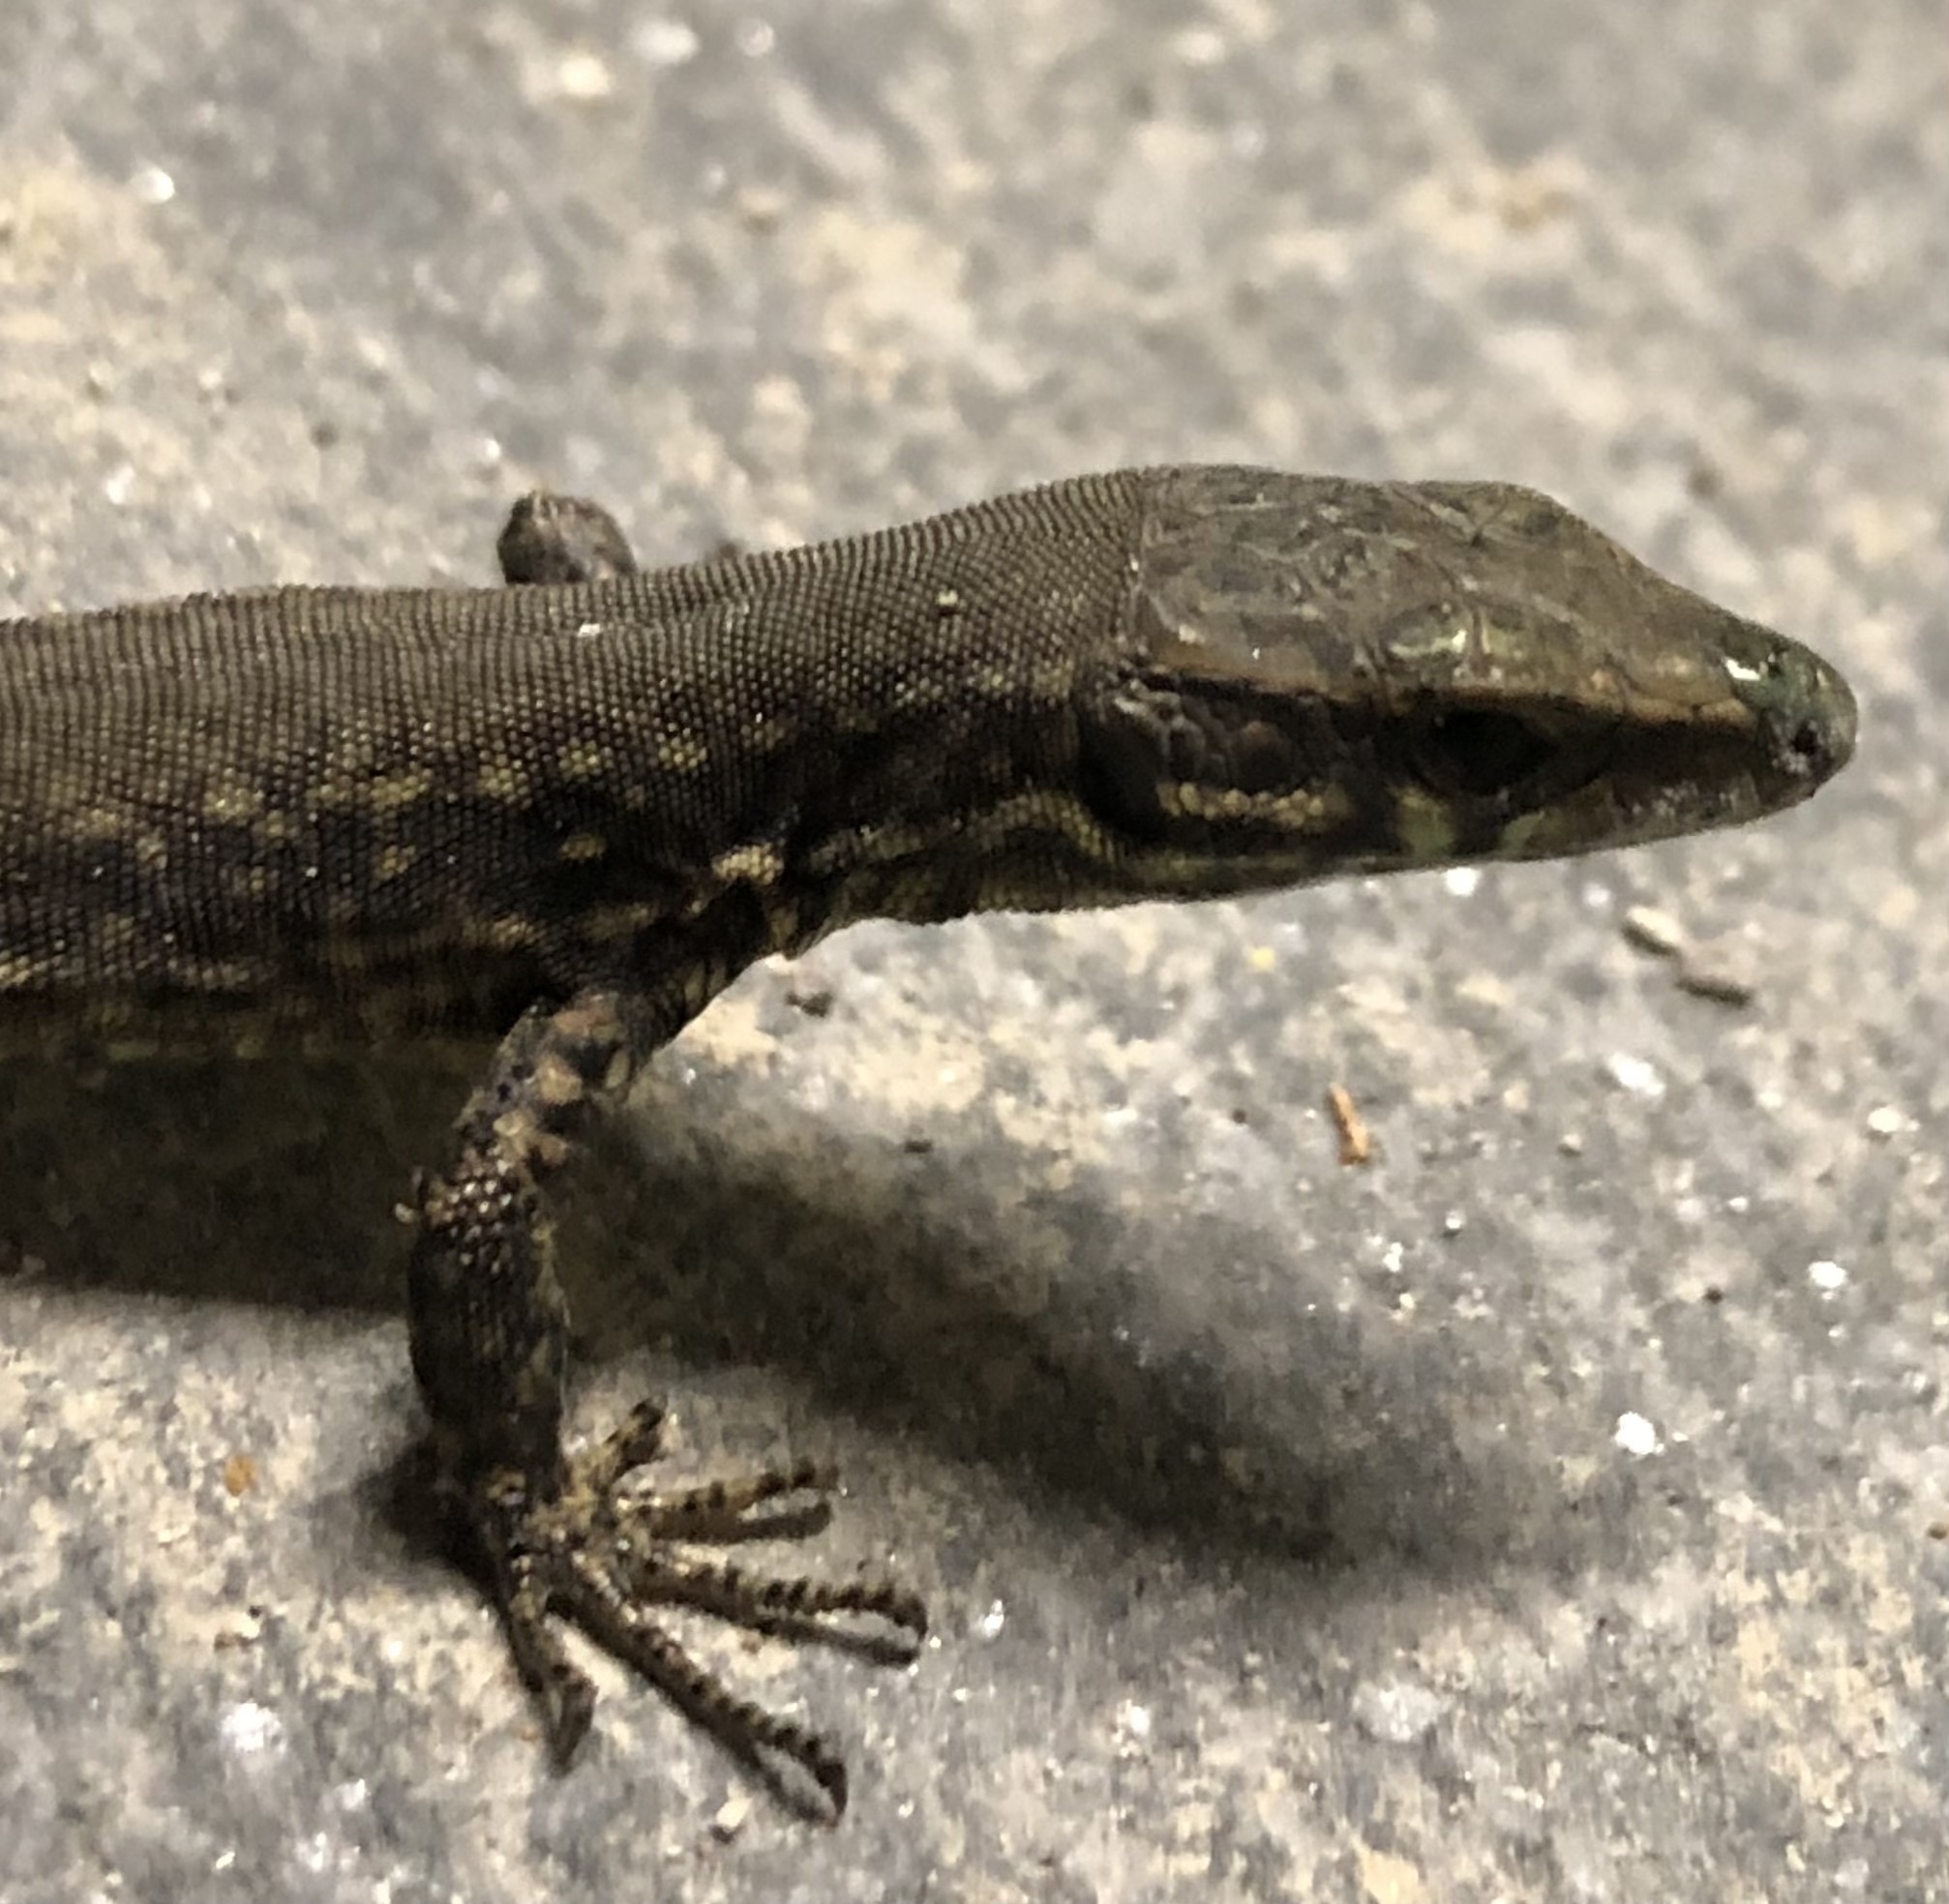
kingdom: Animalia
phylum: Chordata
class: Squamata
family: Lacertidae
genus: Podarcis
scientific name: Podarcis muralis
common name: Common wall lizard
